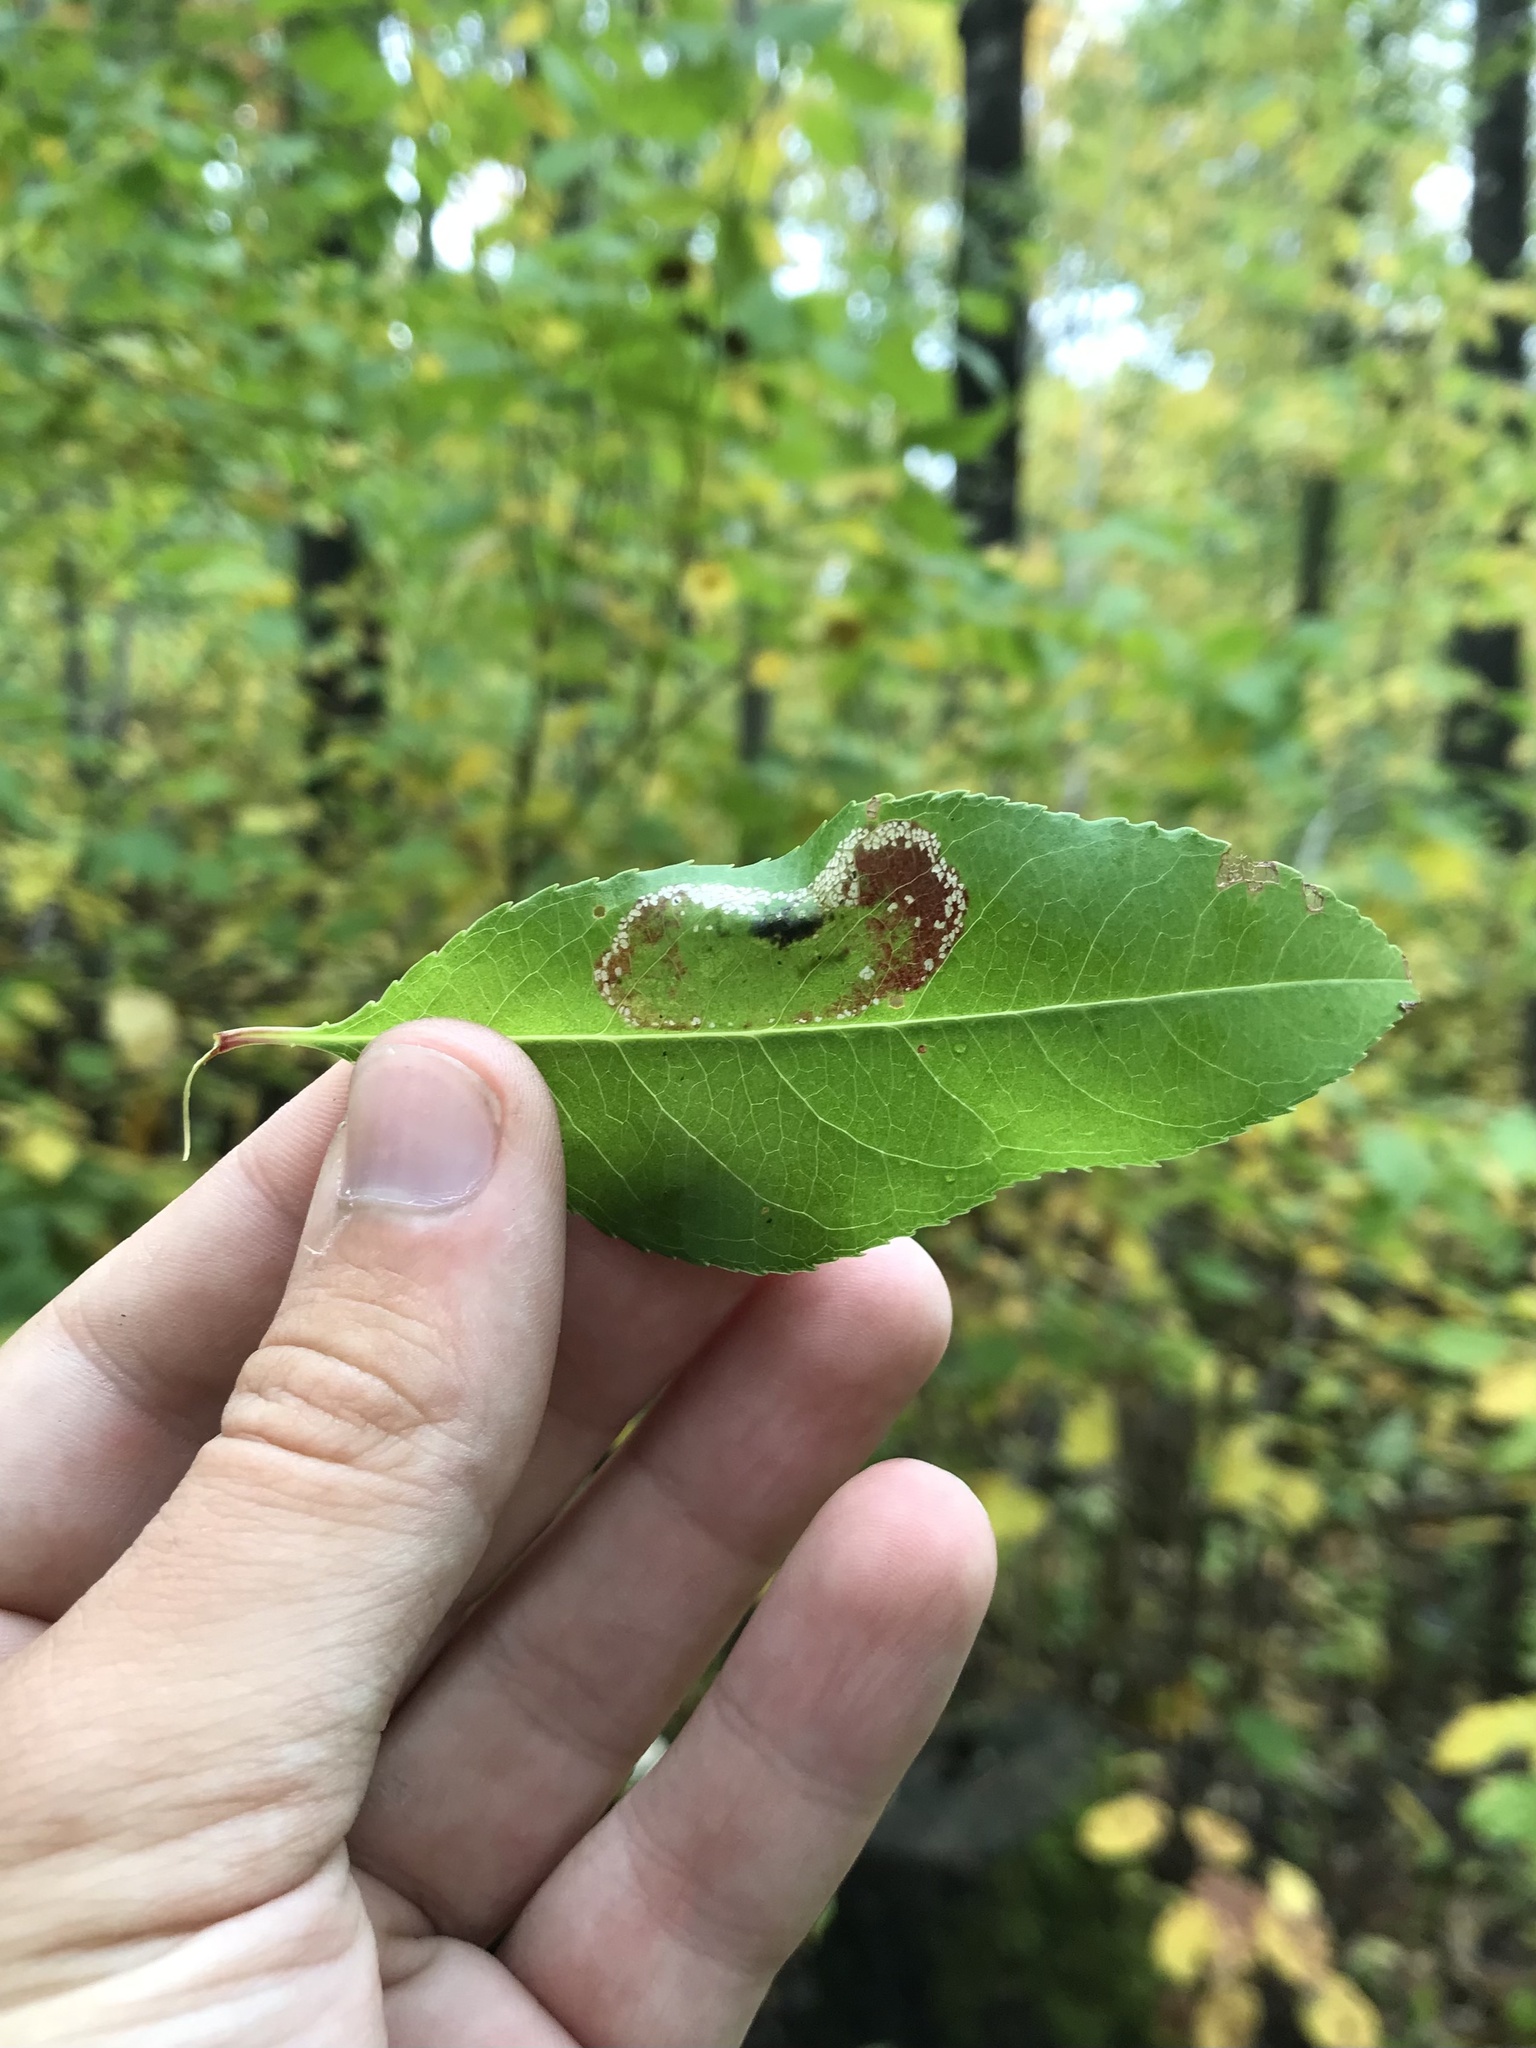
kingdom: Animalia
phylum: Arthropoda
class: Insecta
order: Lepidoptera
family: Gracillariidae
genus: Parornix
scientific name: Parornix geminatella
